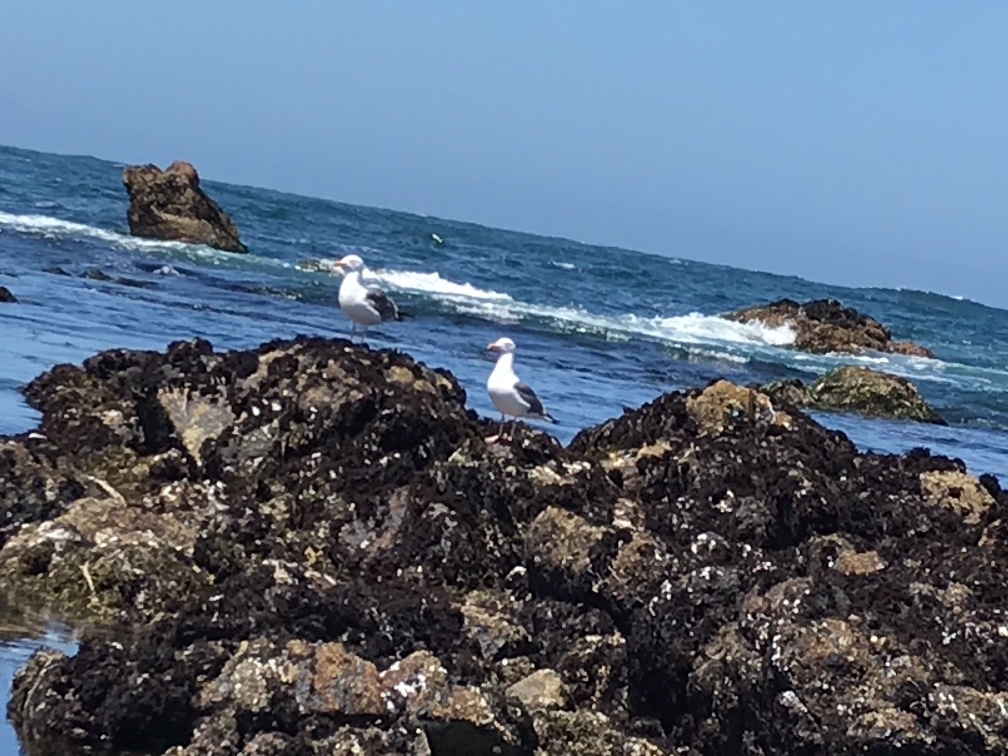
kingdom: Animalia
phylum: Chordata
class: Aves
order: Charadriiformes
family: Laridae
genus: Larus
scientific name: Larus occidentalis
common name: Western gull
